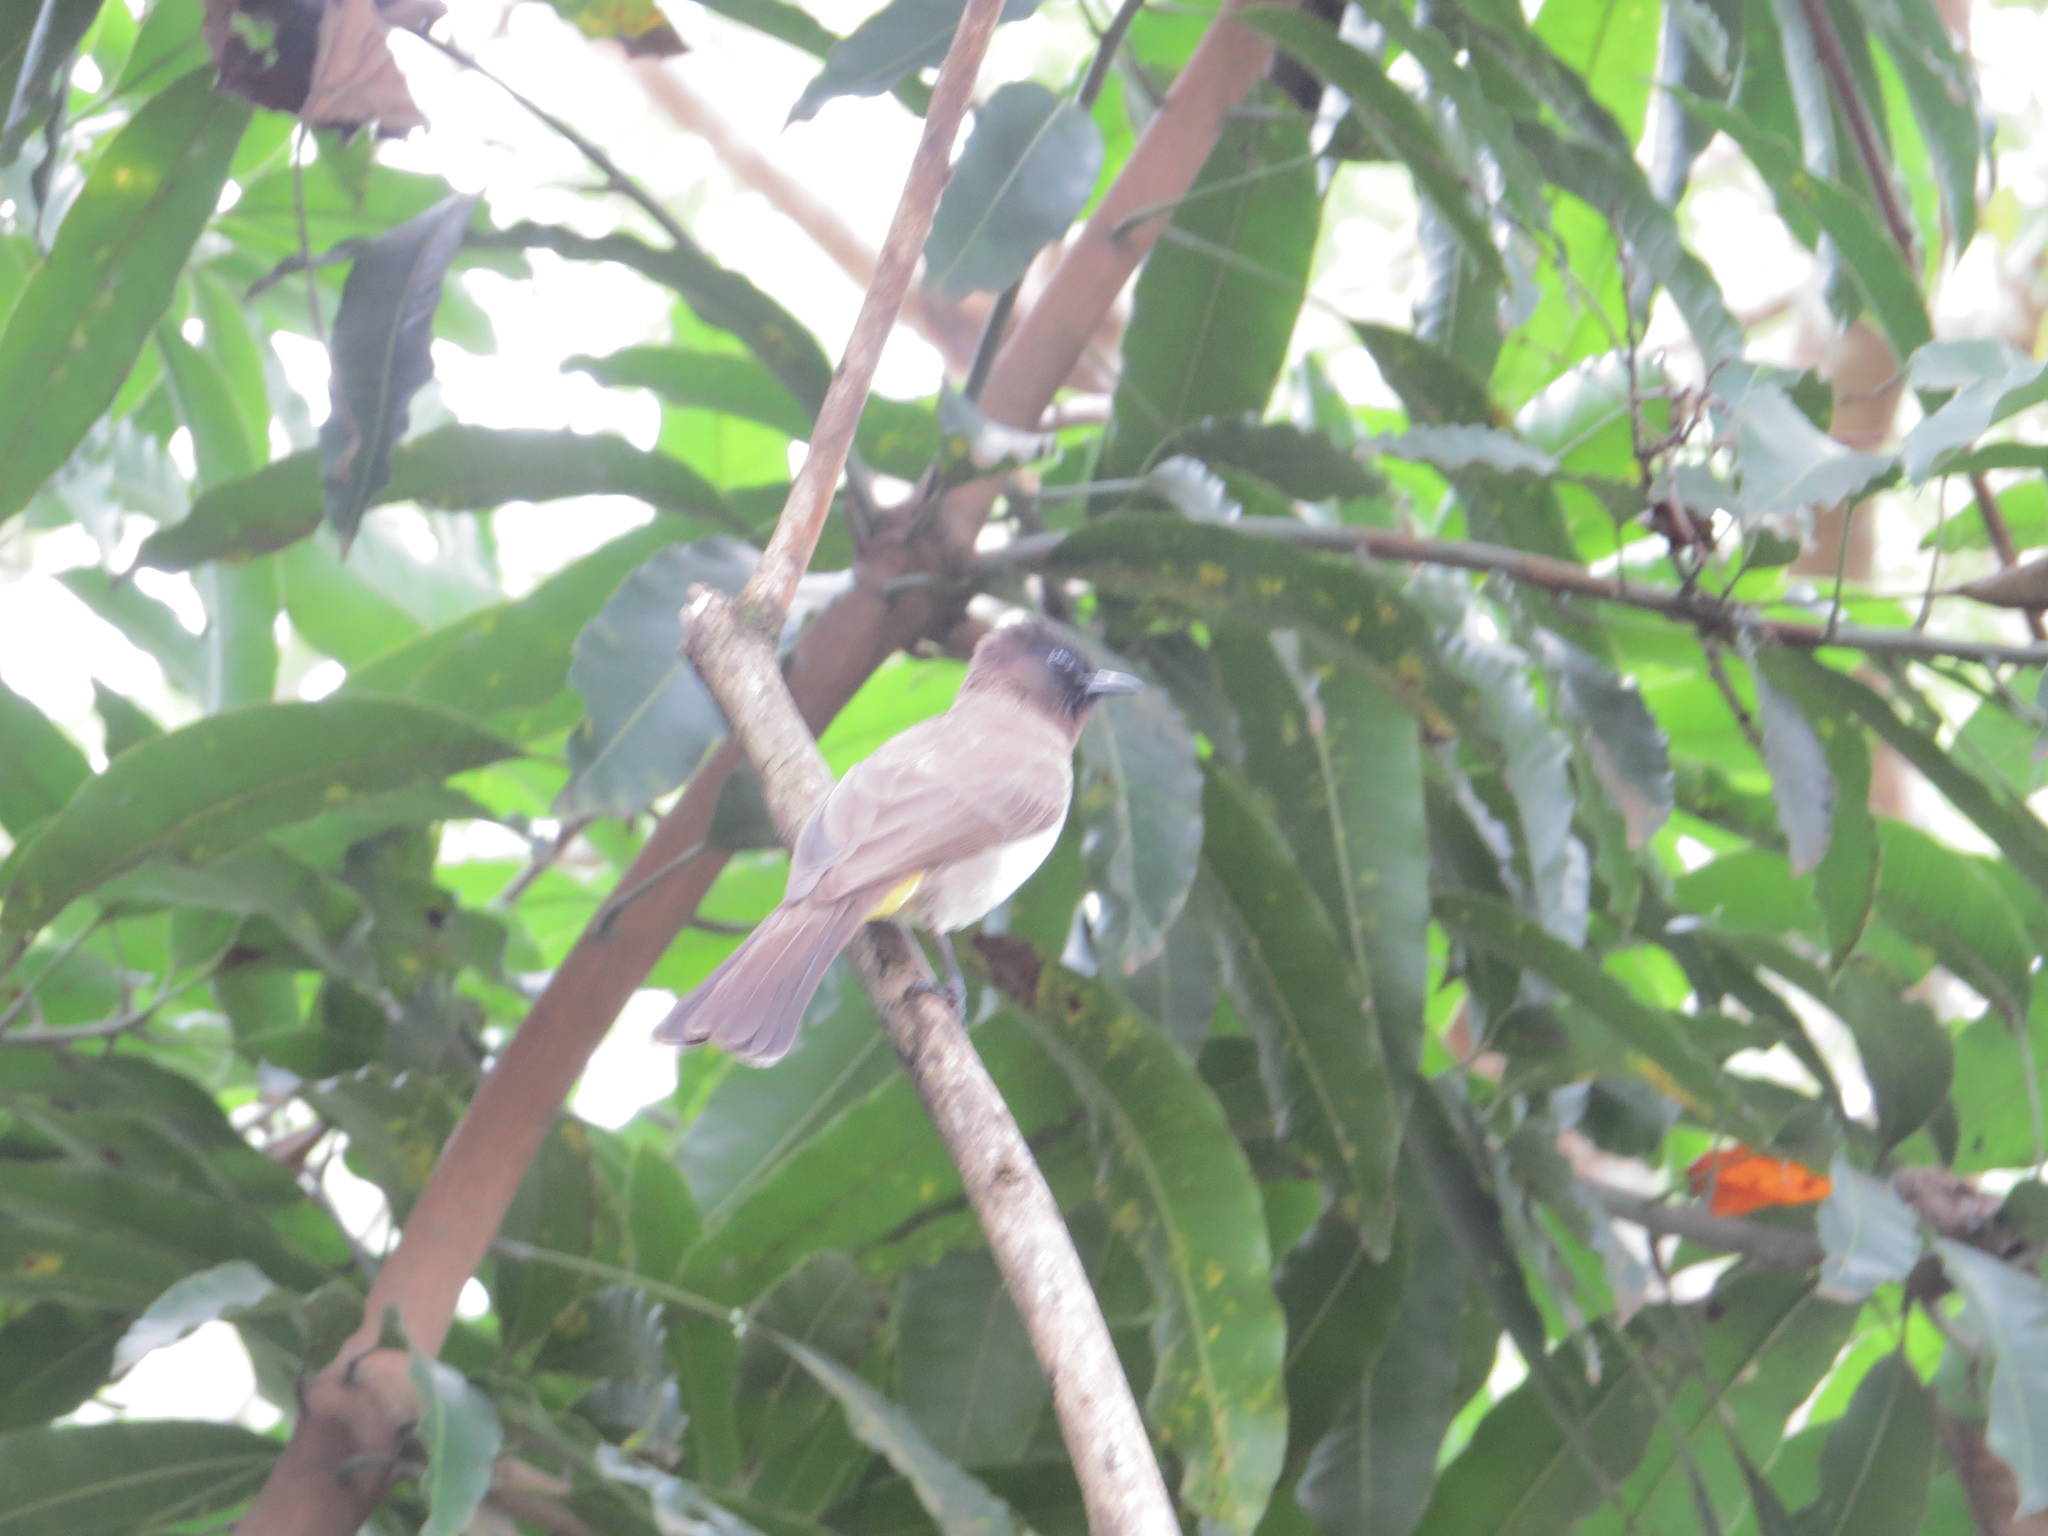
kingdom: Animalia
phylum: Chordata
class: Aves
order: Passeriformes
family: Pycnonotidae
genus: Pycnonotus
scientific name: Pycnonotus barbatus
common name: Common bulbul
